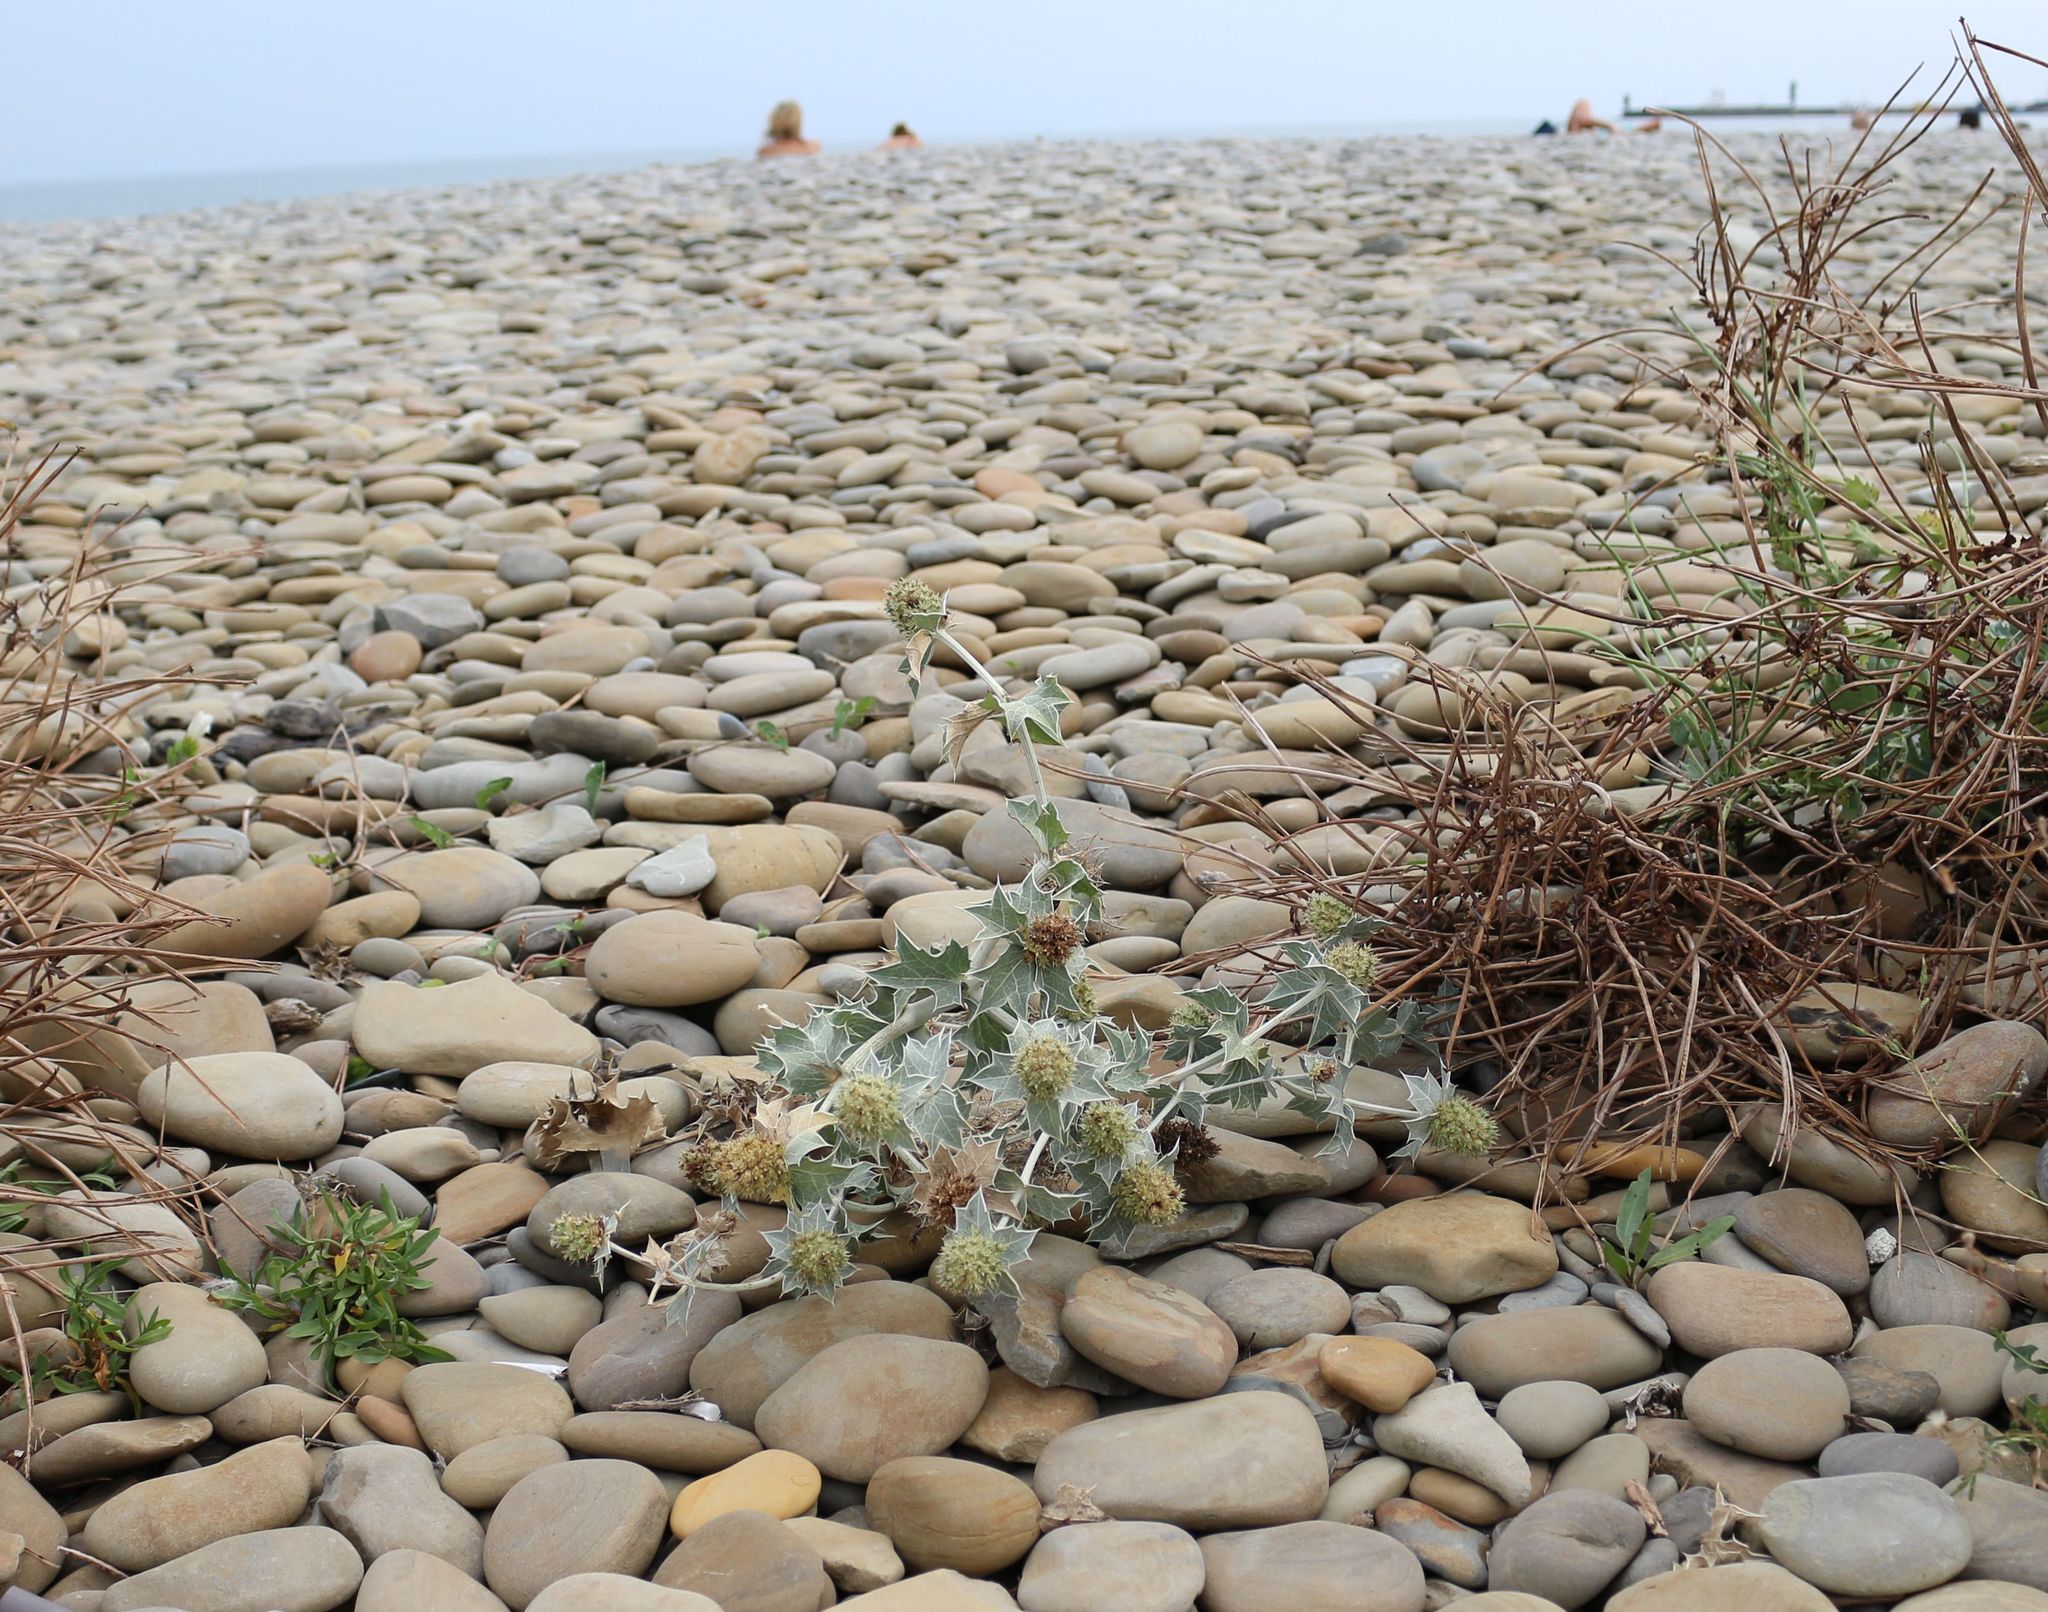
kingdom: Plantae
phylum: Tracheophyta
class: Magnoliopsida
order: Apiales
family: Apiaceae
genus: Eryngium
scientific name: Eryngium maritimum
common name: Sea-holly
